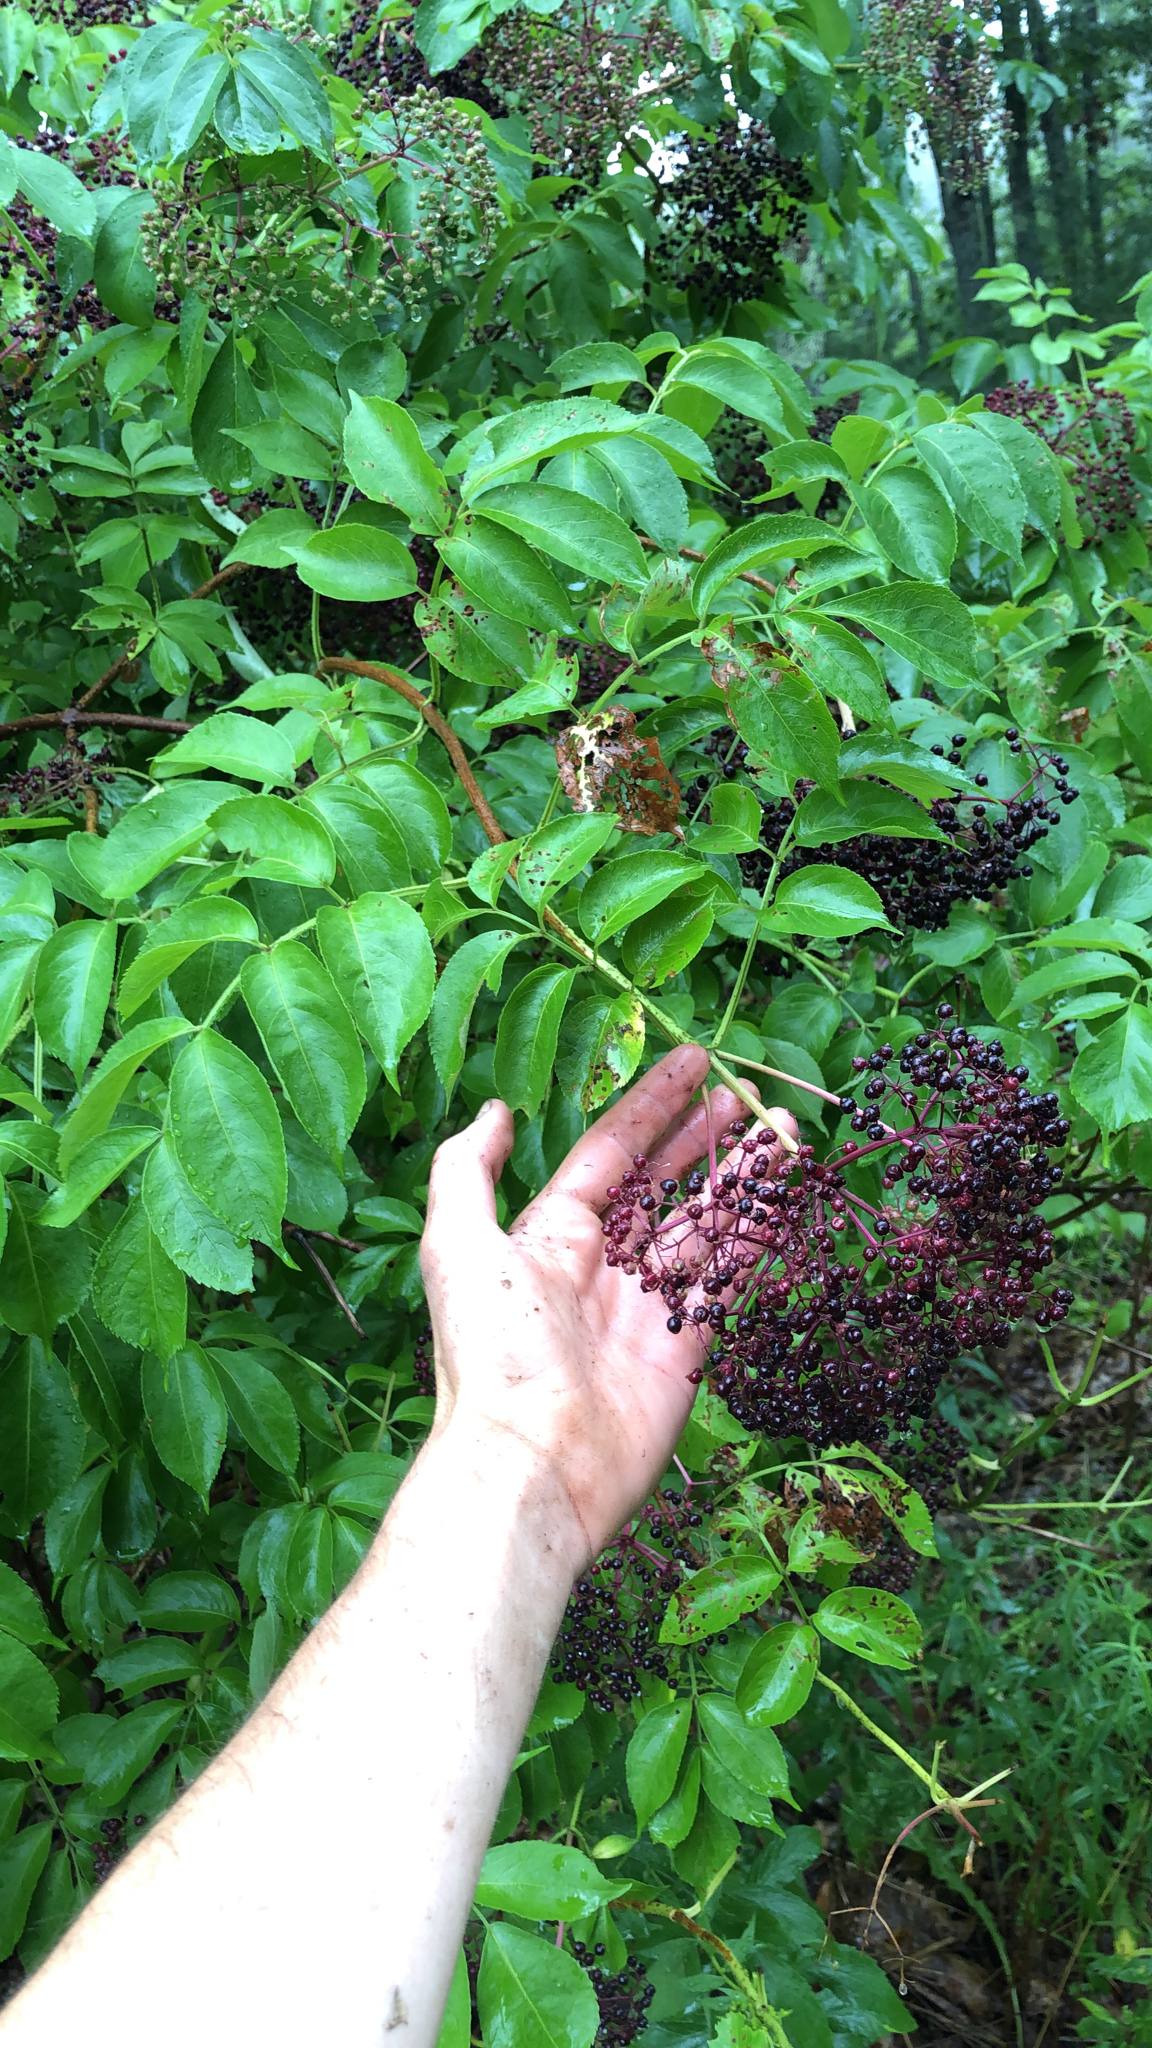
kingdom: Plantae
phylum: Tracheophyta
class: Magnoliopsida
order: Dipsacales
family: Viburnaceae
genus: Sambucus
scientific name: Sambucus canadensis
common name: American elder
